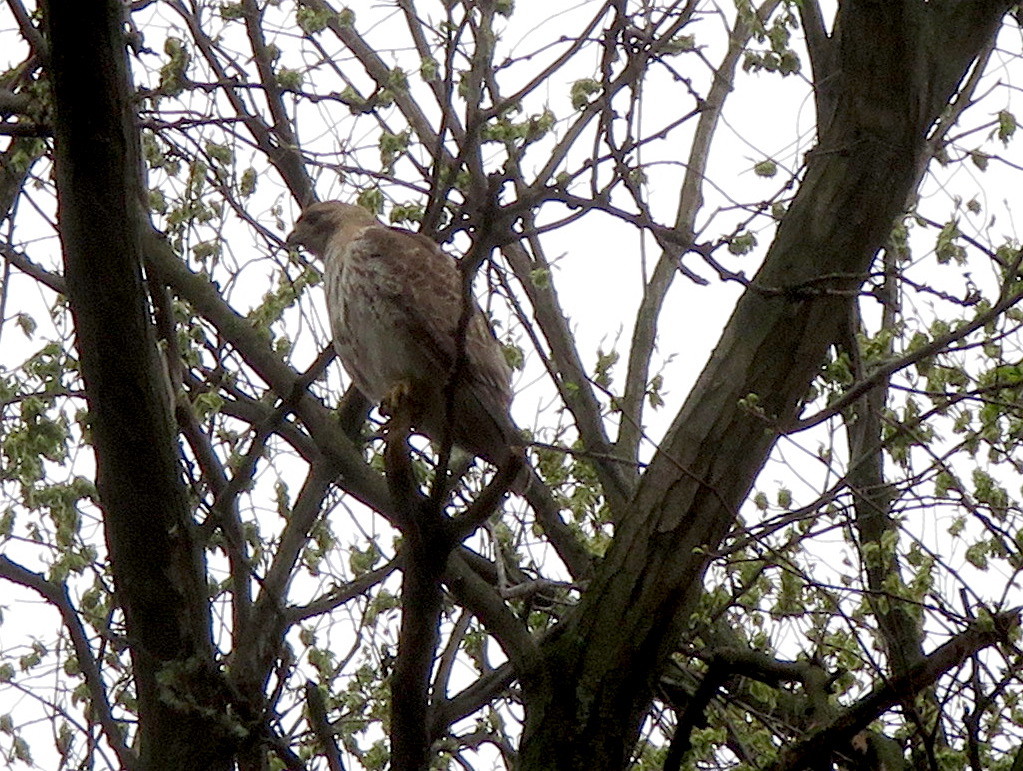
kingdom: Animalia
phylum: Chordata
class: Aves
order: Accipitriformes
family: Accipitridae
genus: Buteo
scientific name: Buteo jamaicensis
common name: Red-tailed hawk
